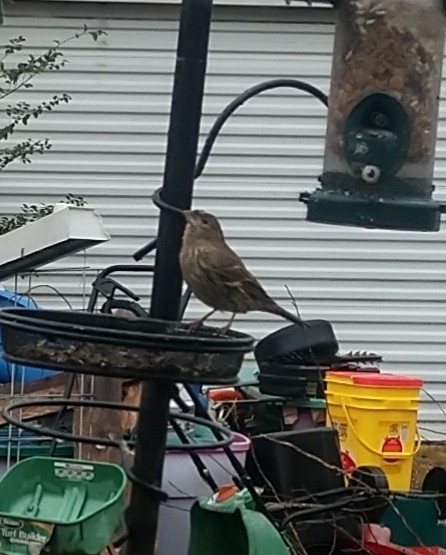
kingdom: Animalia
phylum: Chordata
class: Aves
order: Passeriformes
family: Fringillidae
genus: Haemorhous
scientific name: Haemorhous mexicanus
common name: House finch
